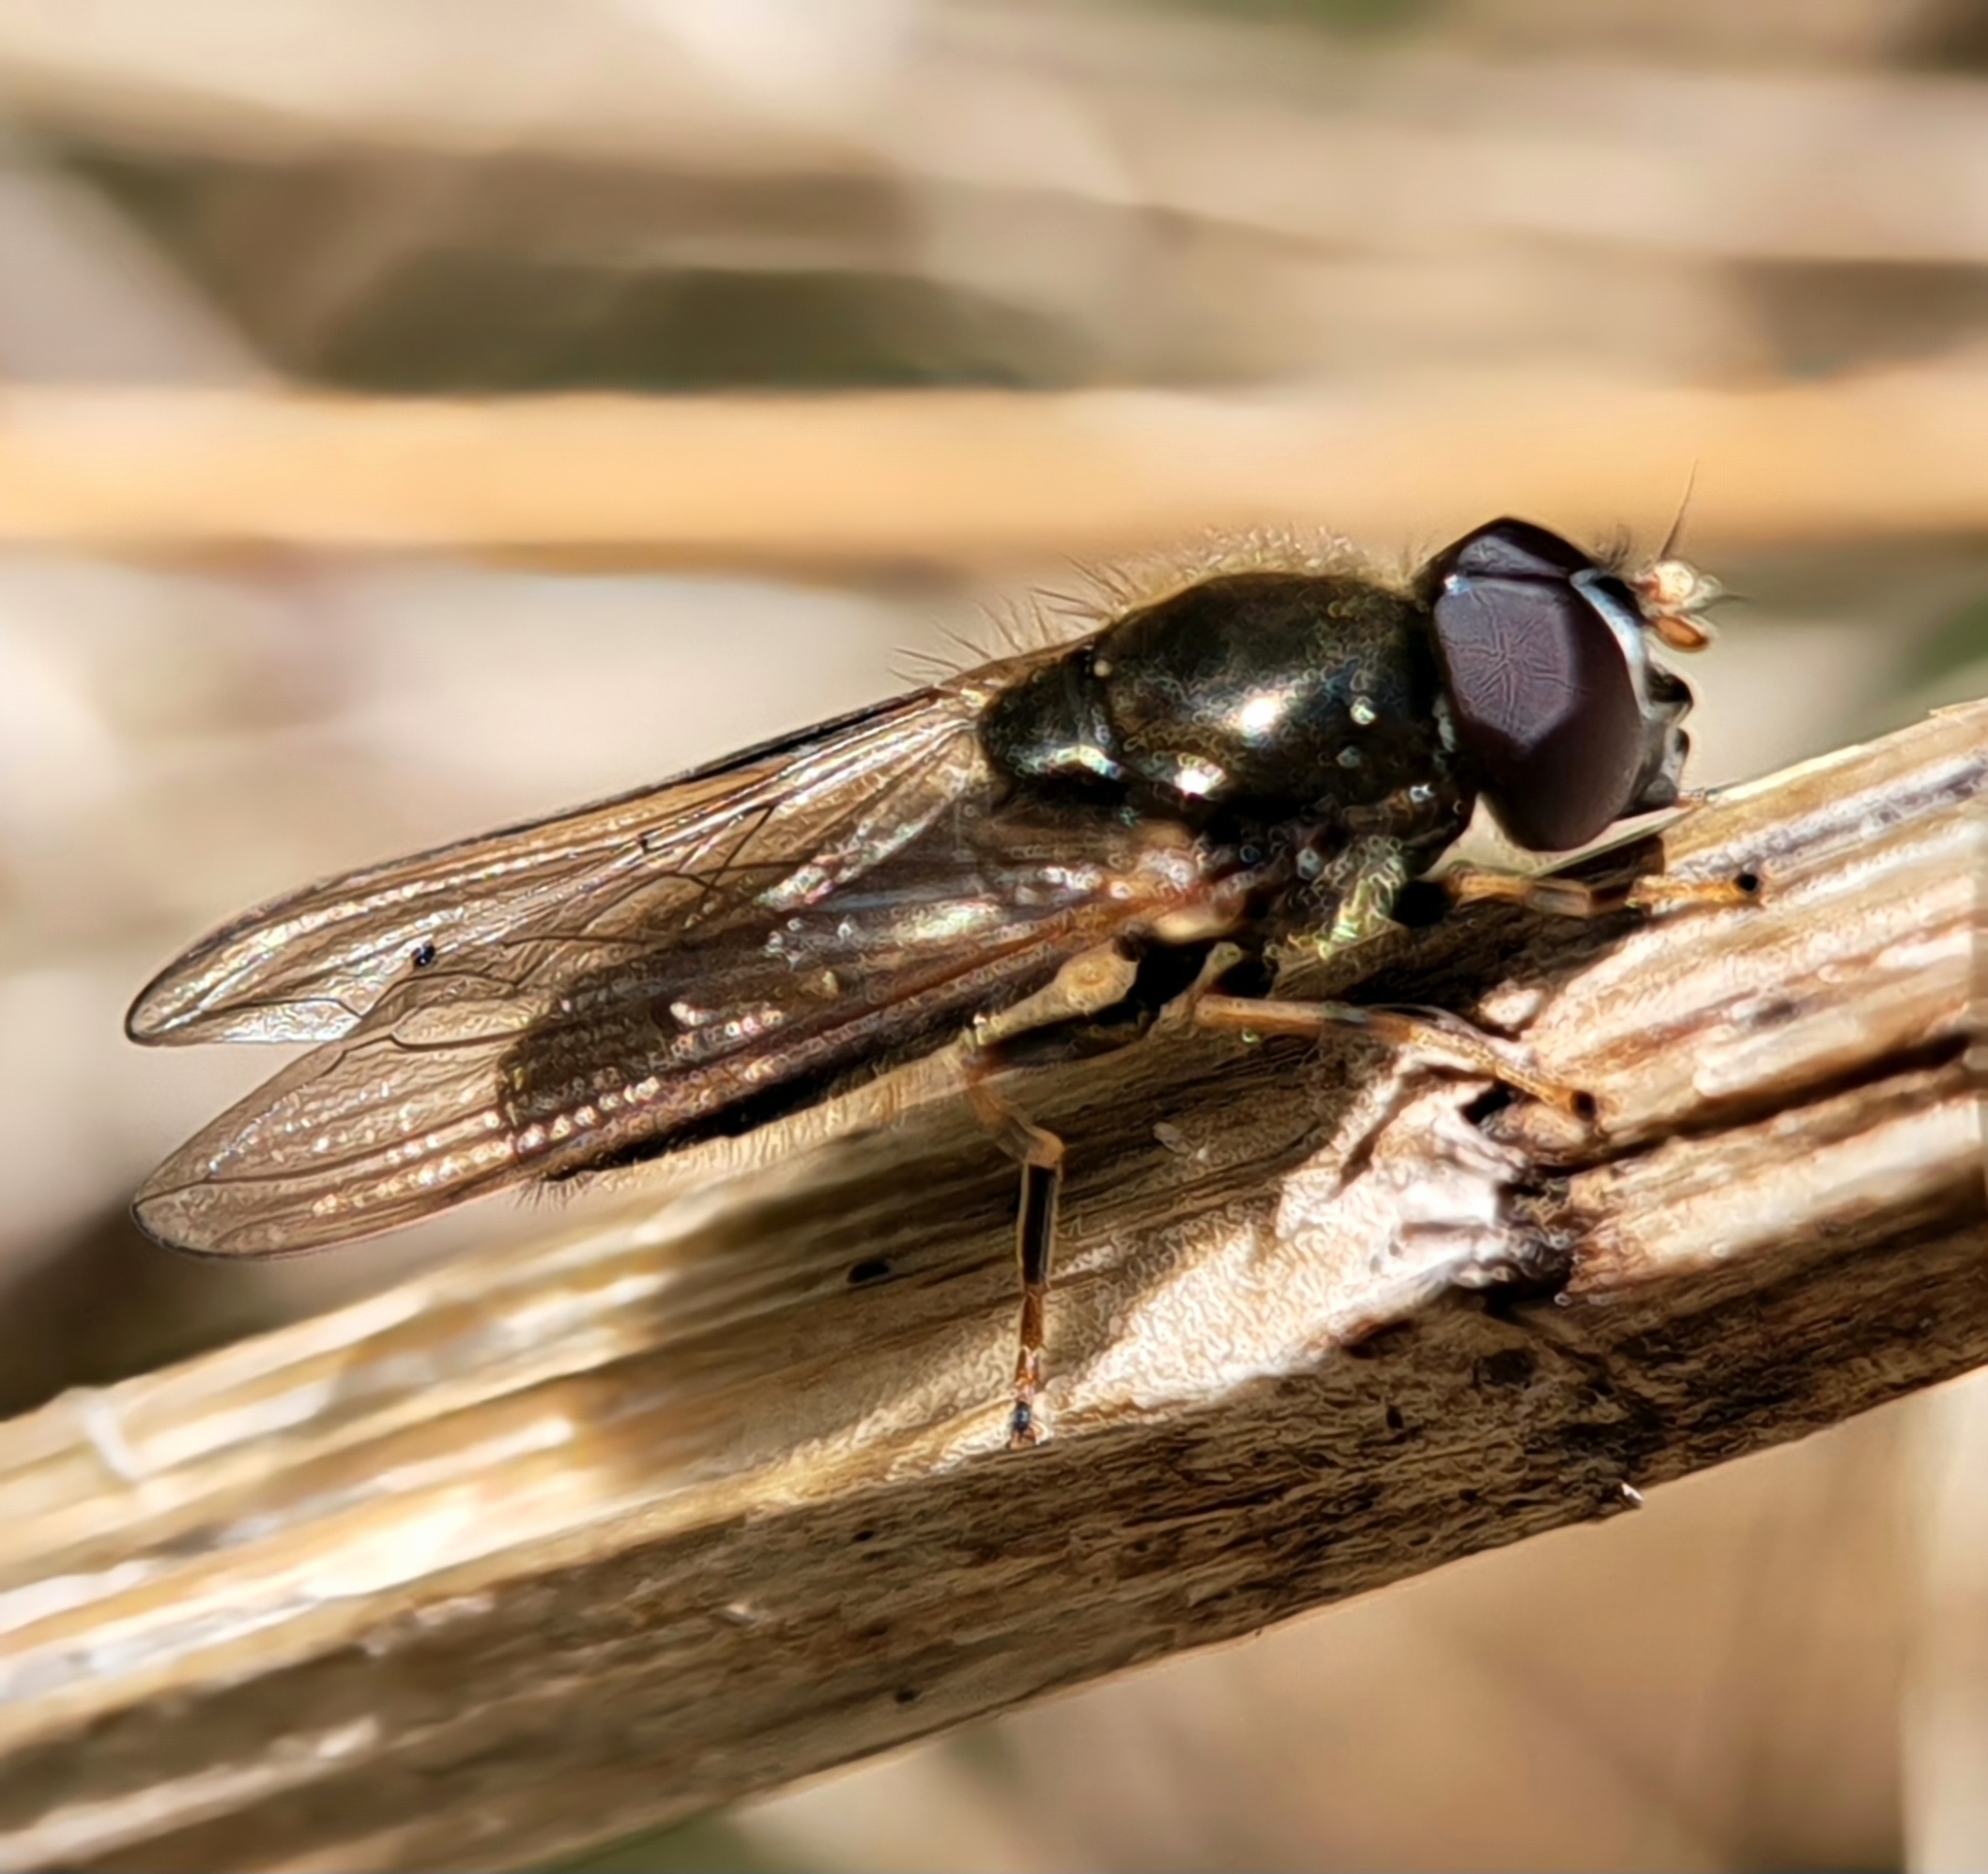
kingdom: Animalia
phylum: Arthropoda
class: Insecta
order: Diptera
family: Syrphidae
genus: Cheilosia
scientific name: Cheilosia pagana
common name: Hover fly
